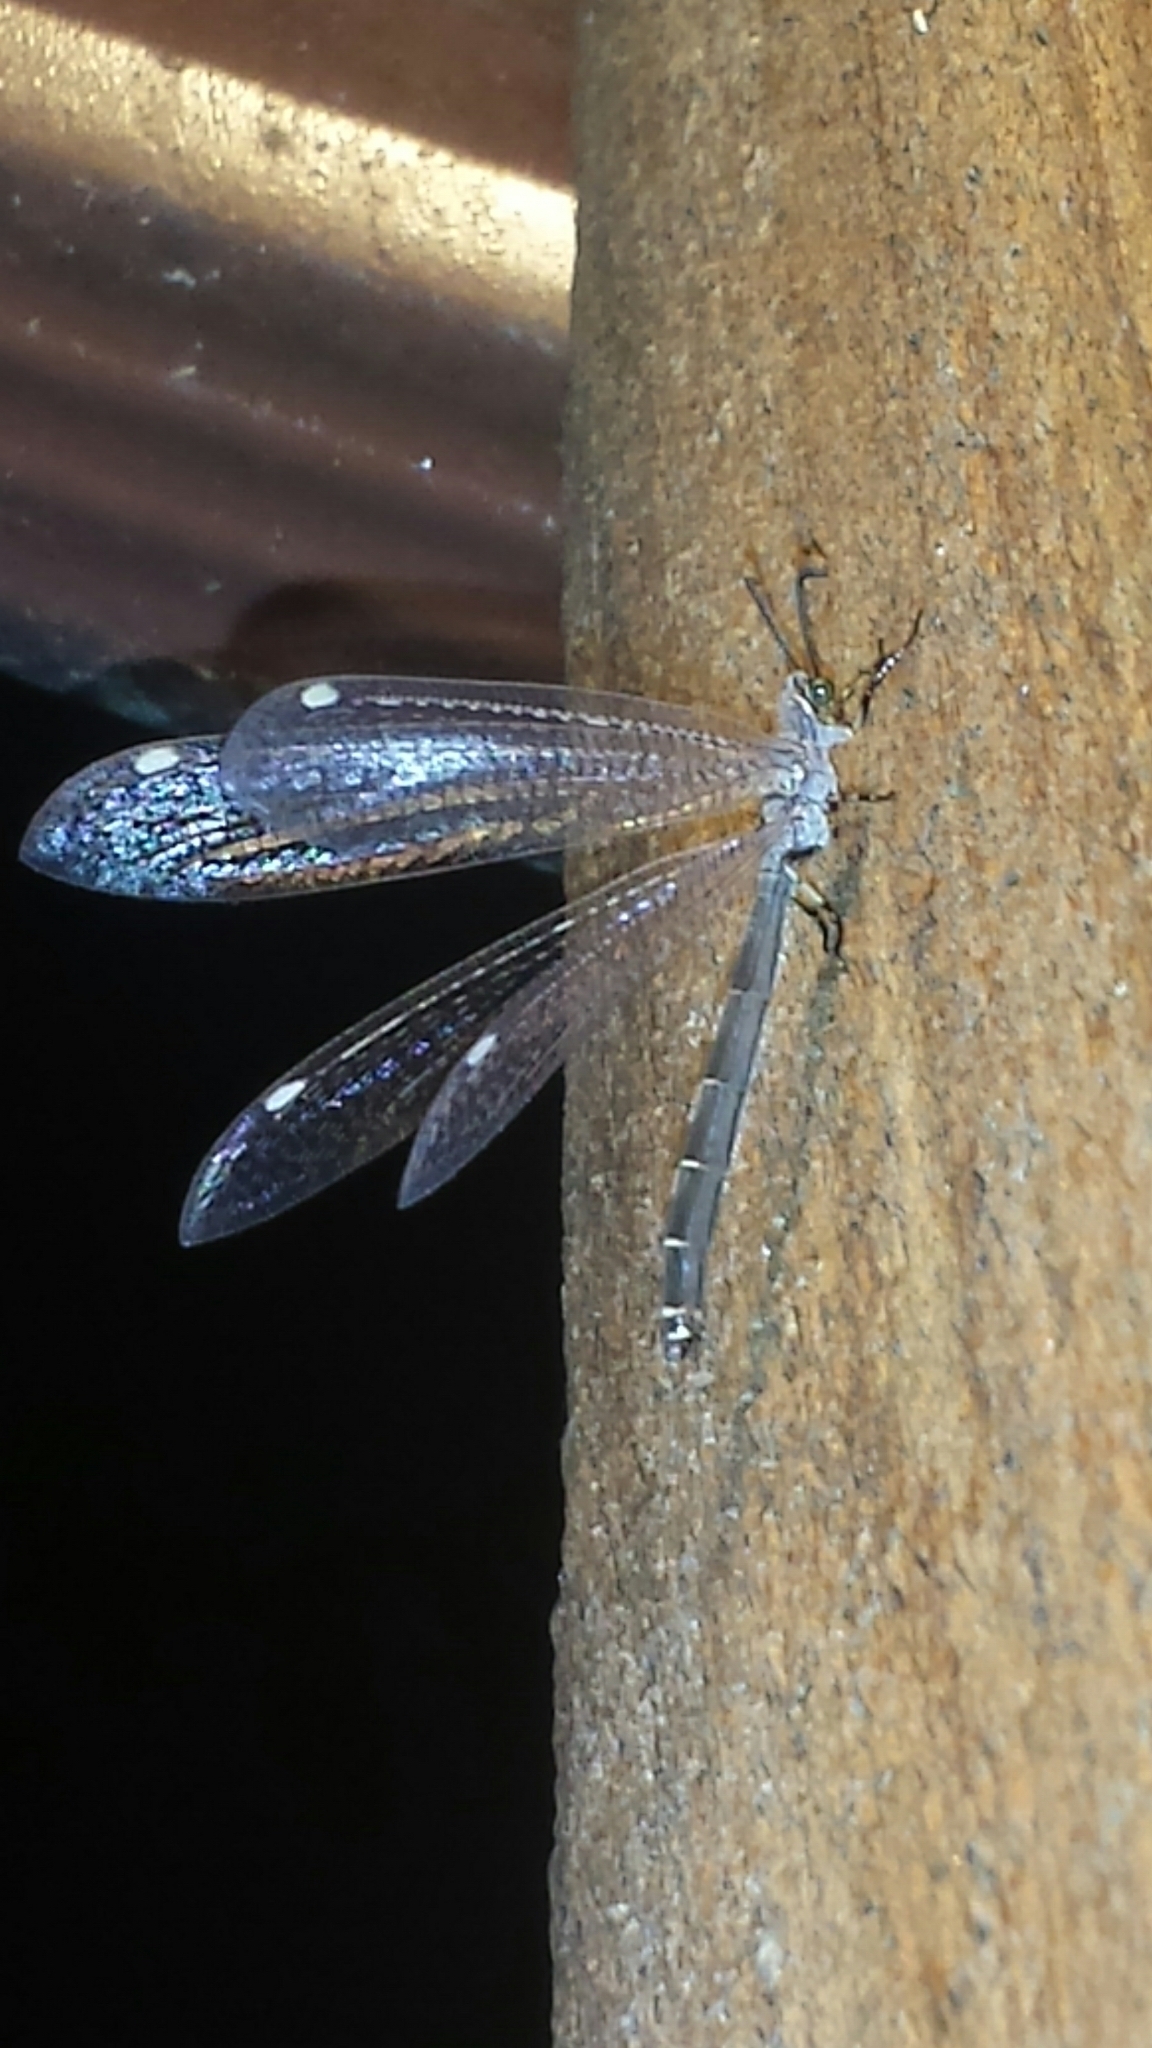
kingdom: Animalia
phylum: Arthropoda
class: Insecta
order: Neuroptera
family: Myrmeleontidae
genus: Myrmeleon
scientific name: Myrmeleon immaculatus
